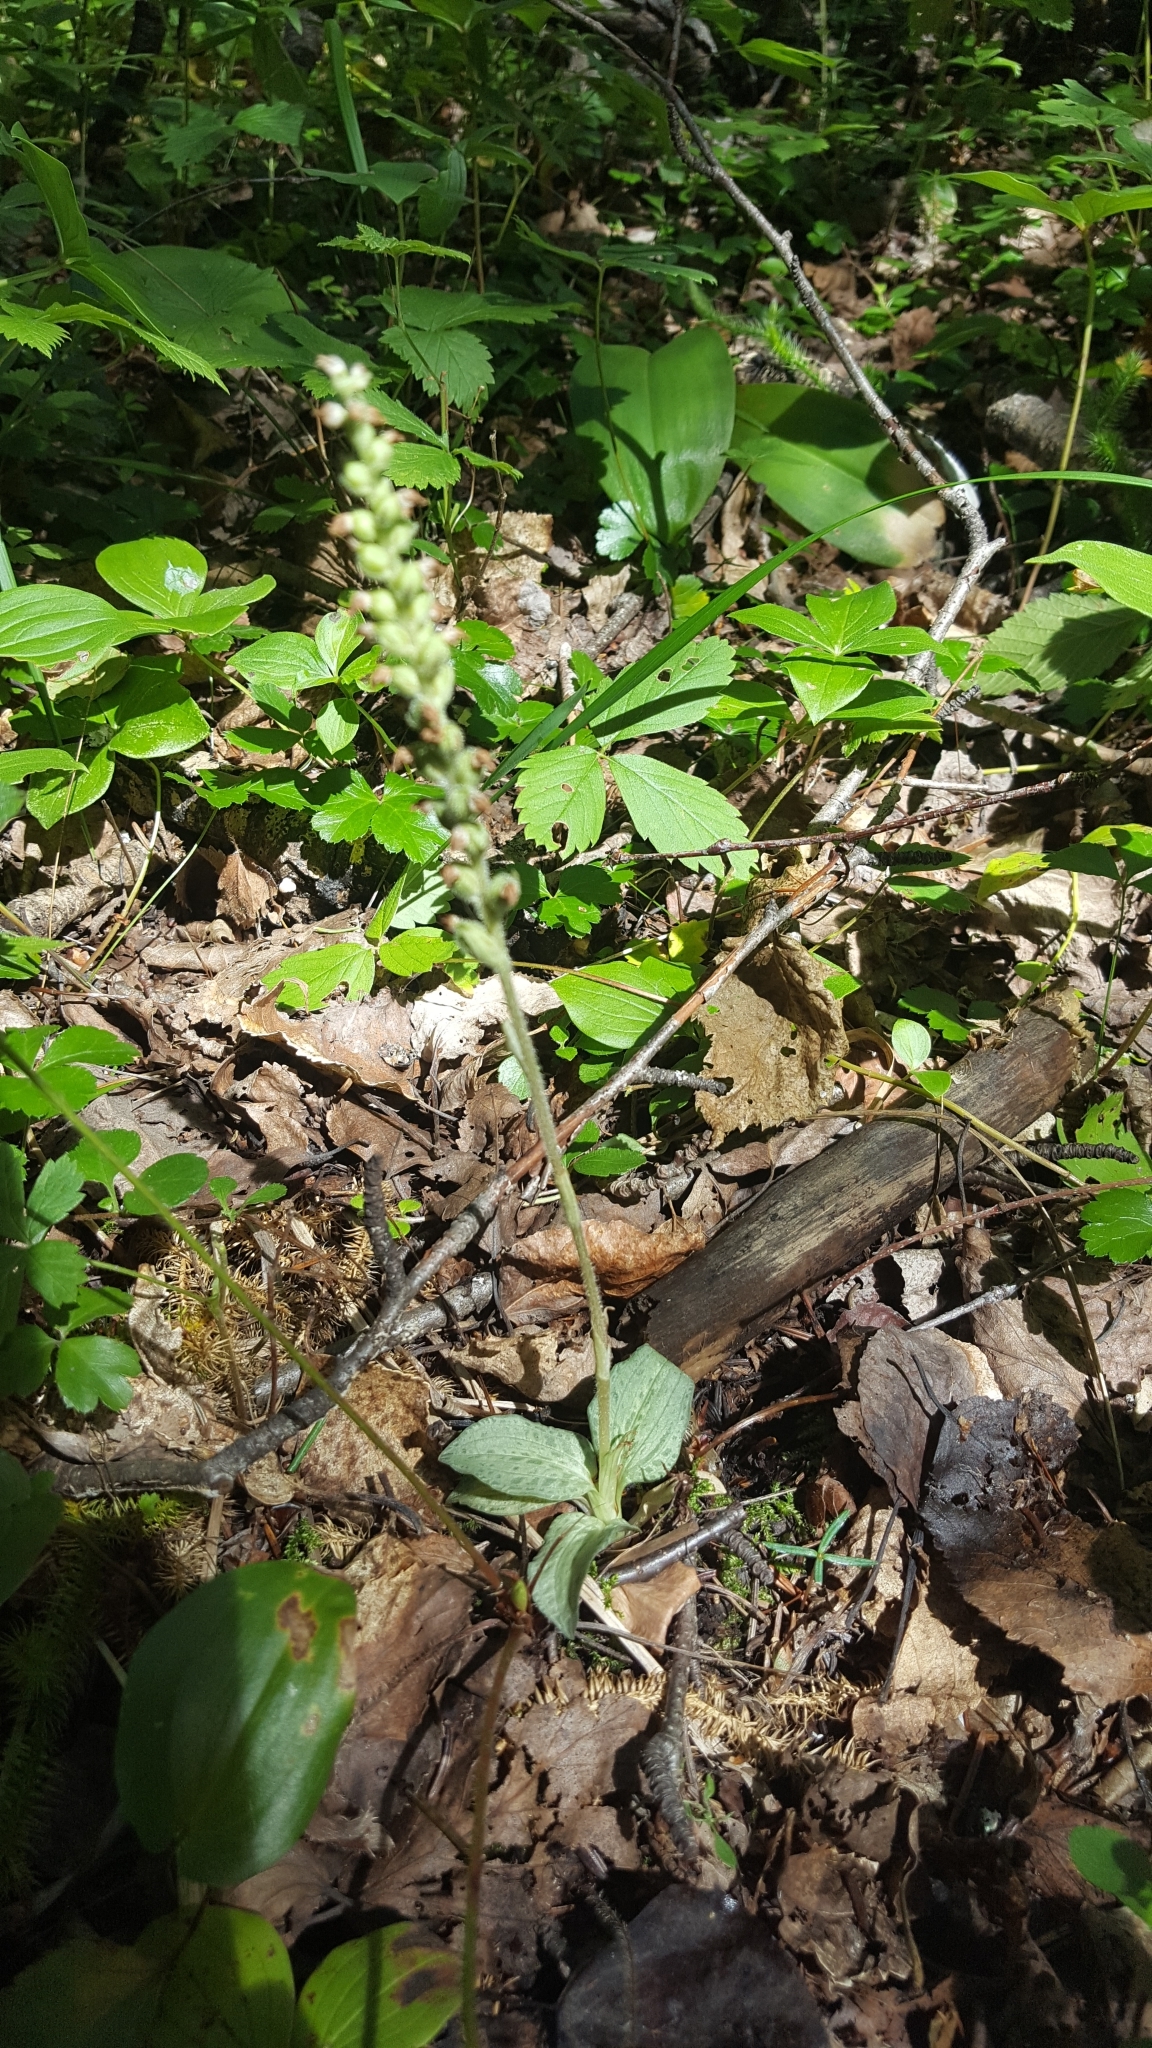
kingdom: Plantae
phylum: Tracheophyta
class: Liliopsida
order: Asparagales
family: Orchidaceae
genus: Goodyera
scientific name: Goodyera tesselata
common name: Checkered rattlesnake-plantain
